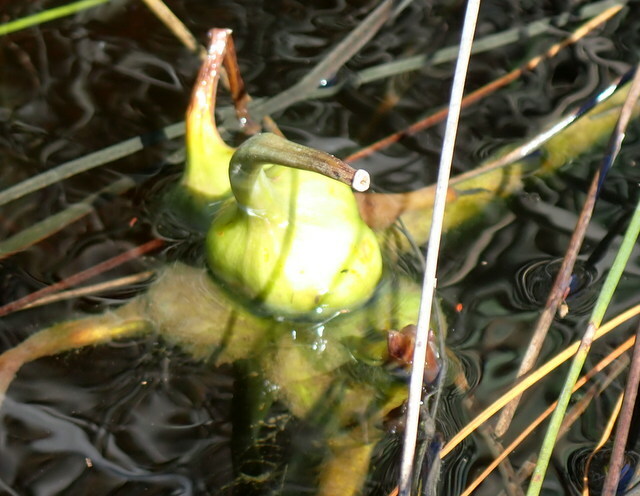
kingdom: Plantae
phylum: Tracheophyta
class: Liliopsida
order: Asparagales
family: Amaryllidaceae
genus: Crinum
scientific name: Crinum americanum
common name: Florida swamp-lily
